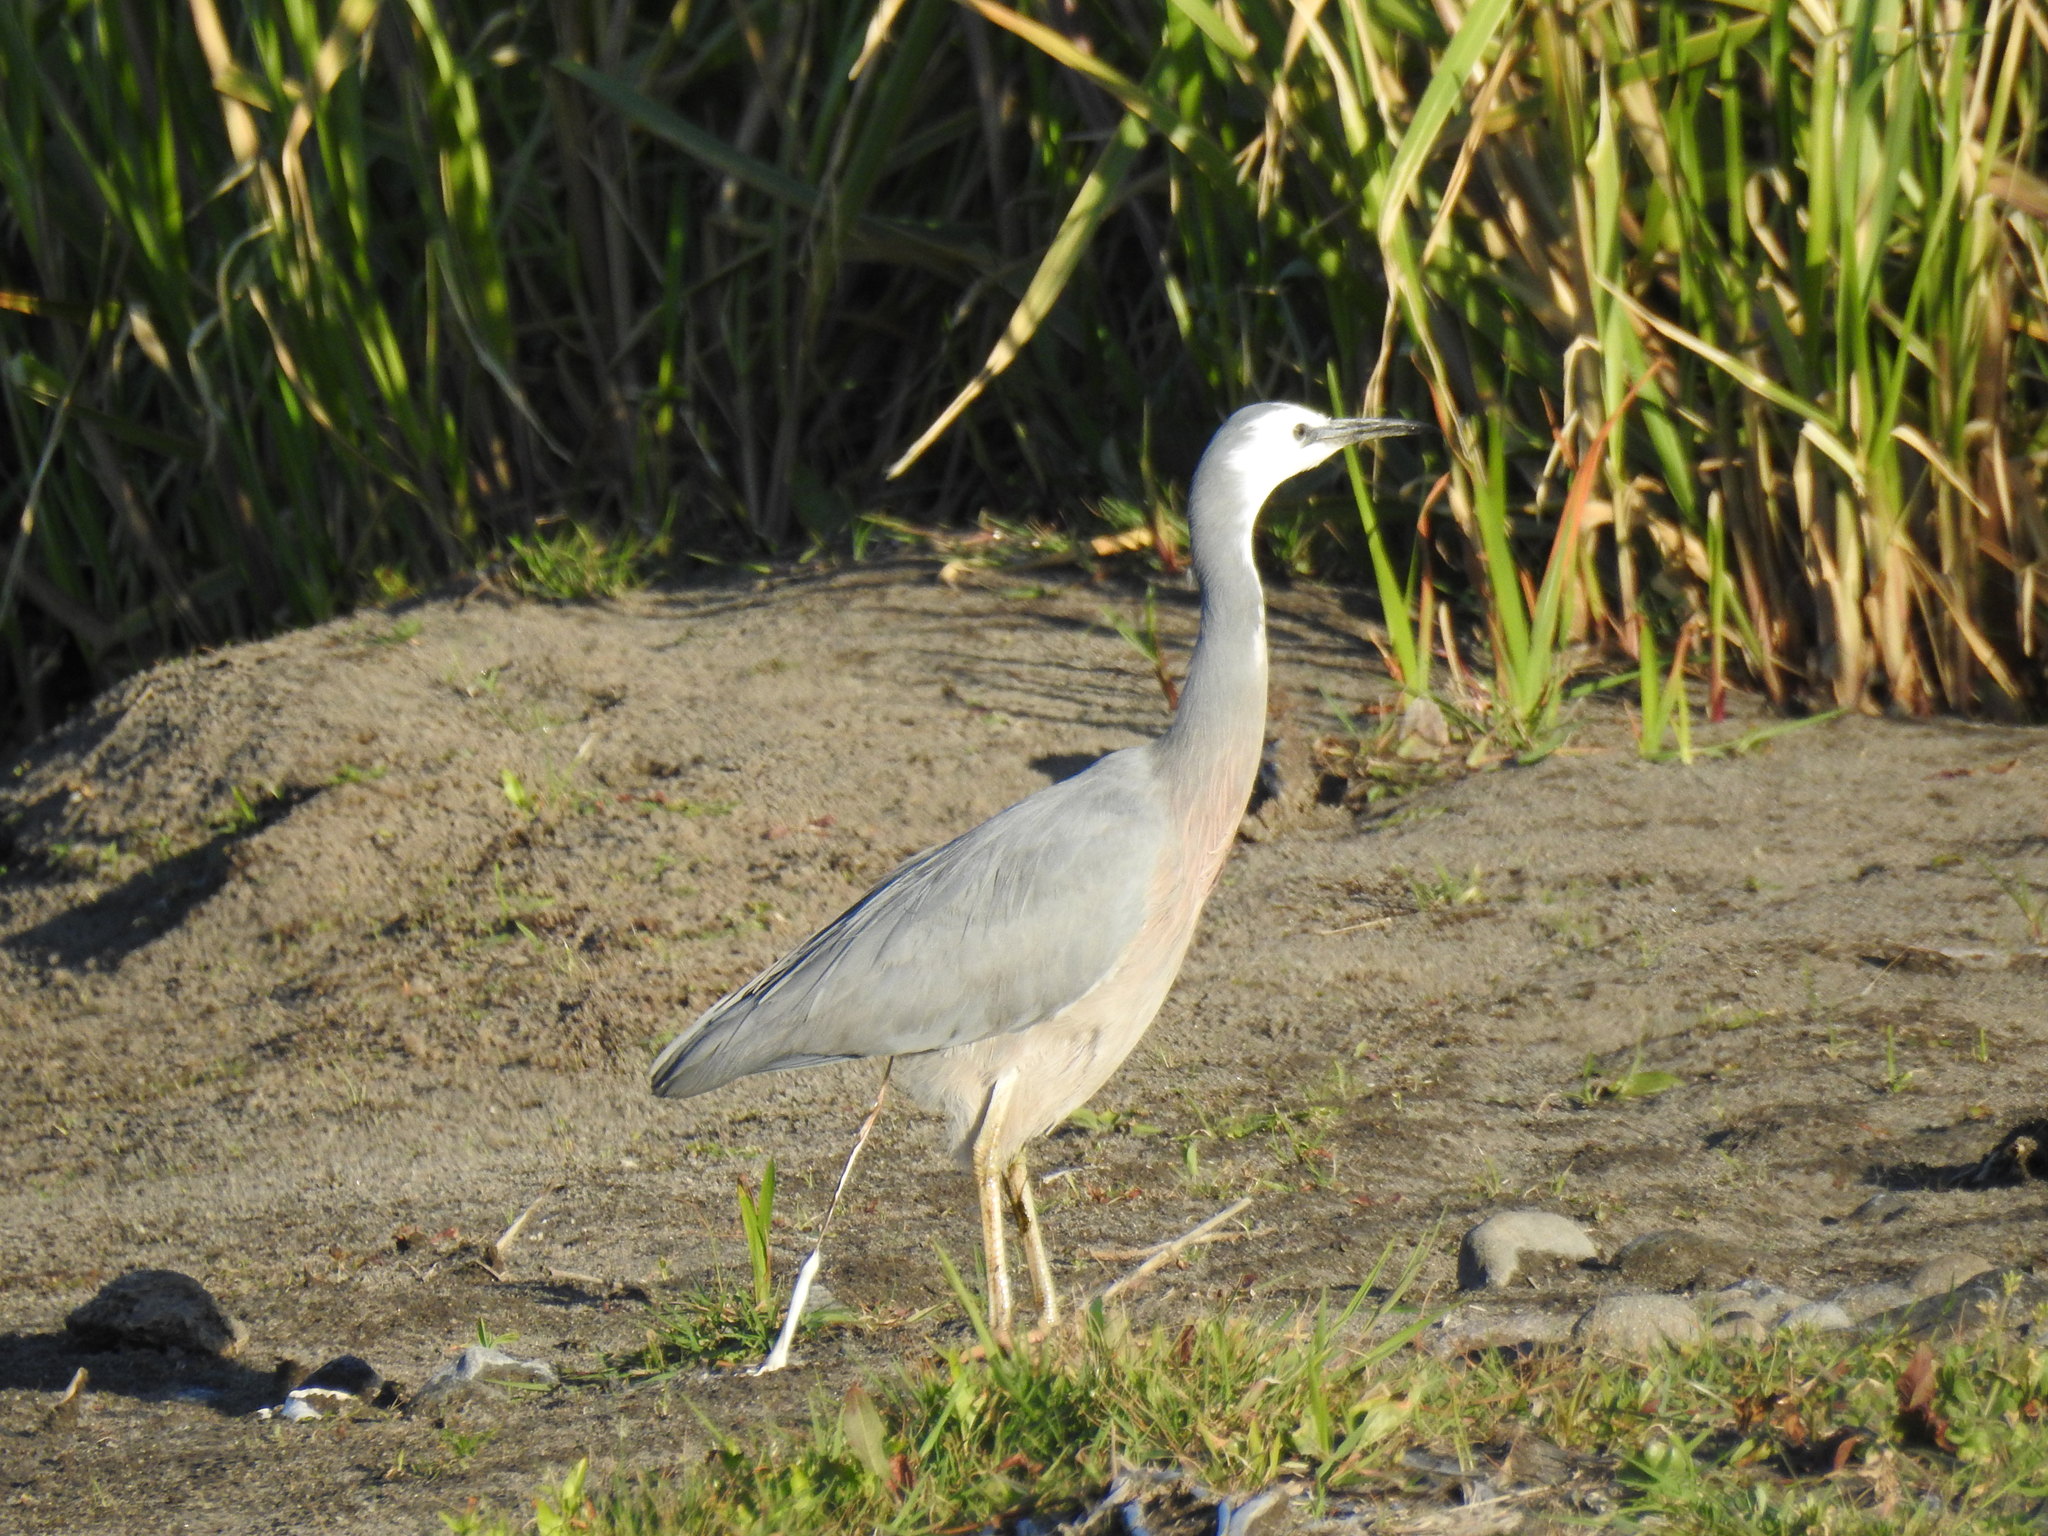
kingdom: Animalia
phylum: Chordata
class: Aves
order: Pelecaniformes
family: Ardeidae
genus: Egretta
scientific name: Egretta novaehollandiae
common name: White-faced heron
